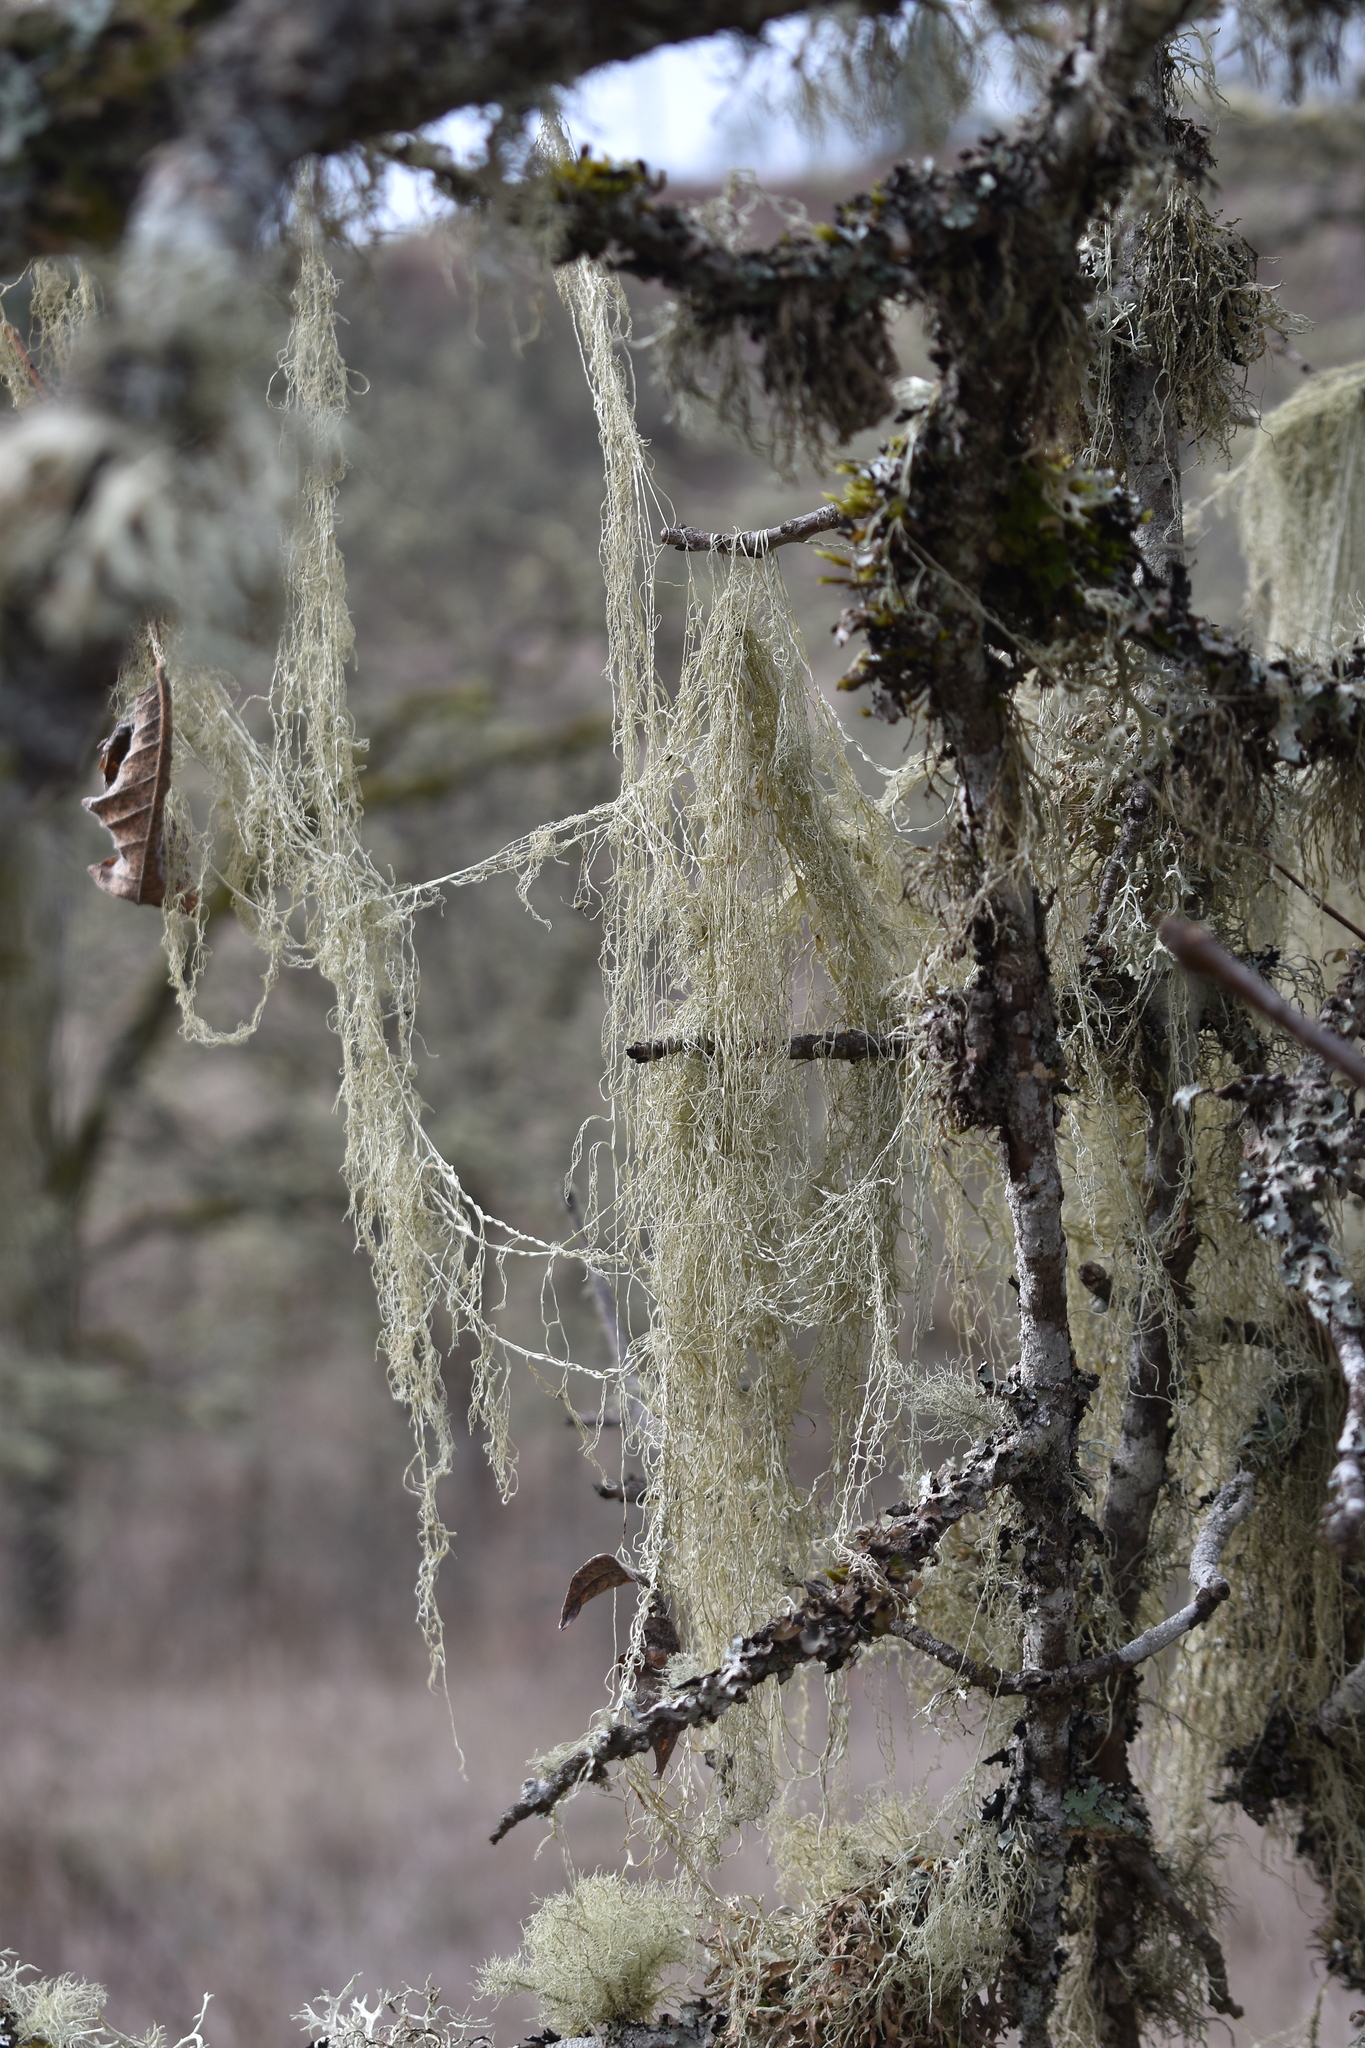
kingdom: Fungi
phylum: Ascomycota
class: Lecanoromycetes
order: Lecanorales
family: Ramalinaceae
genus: Ramalina
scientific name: Ramalina menziesii
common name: Lace lichen
